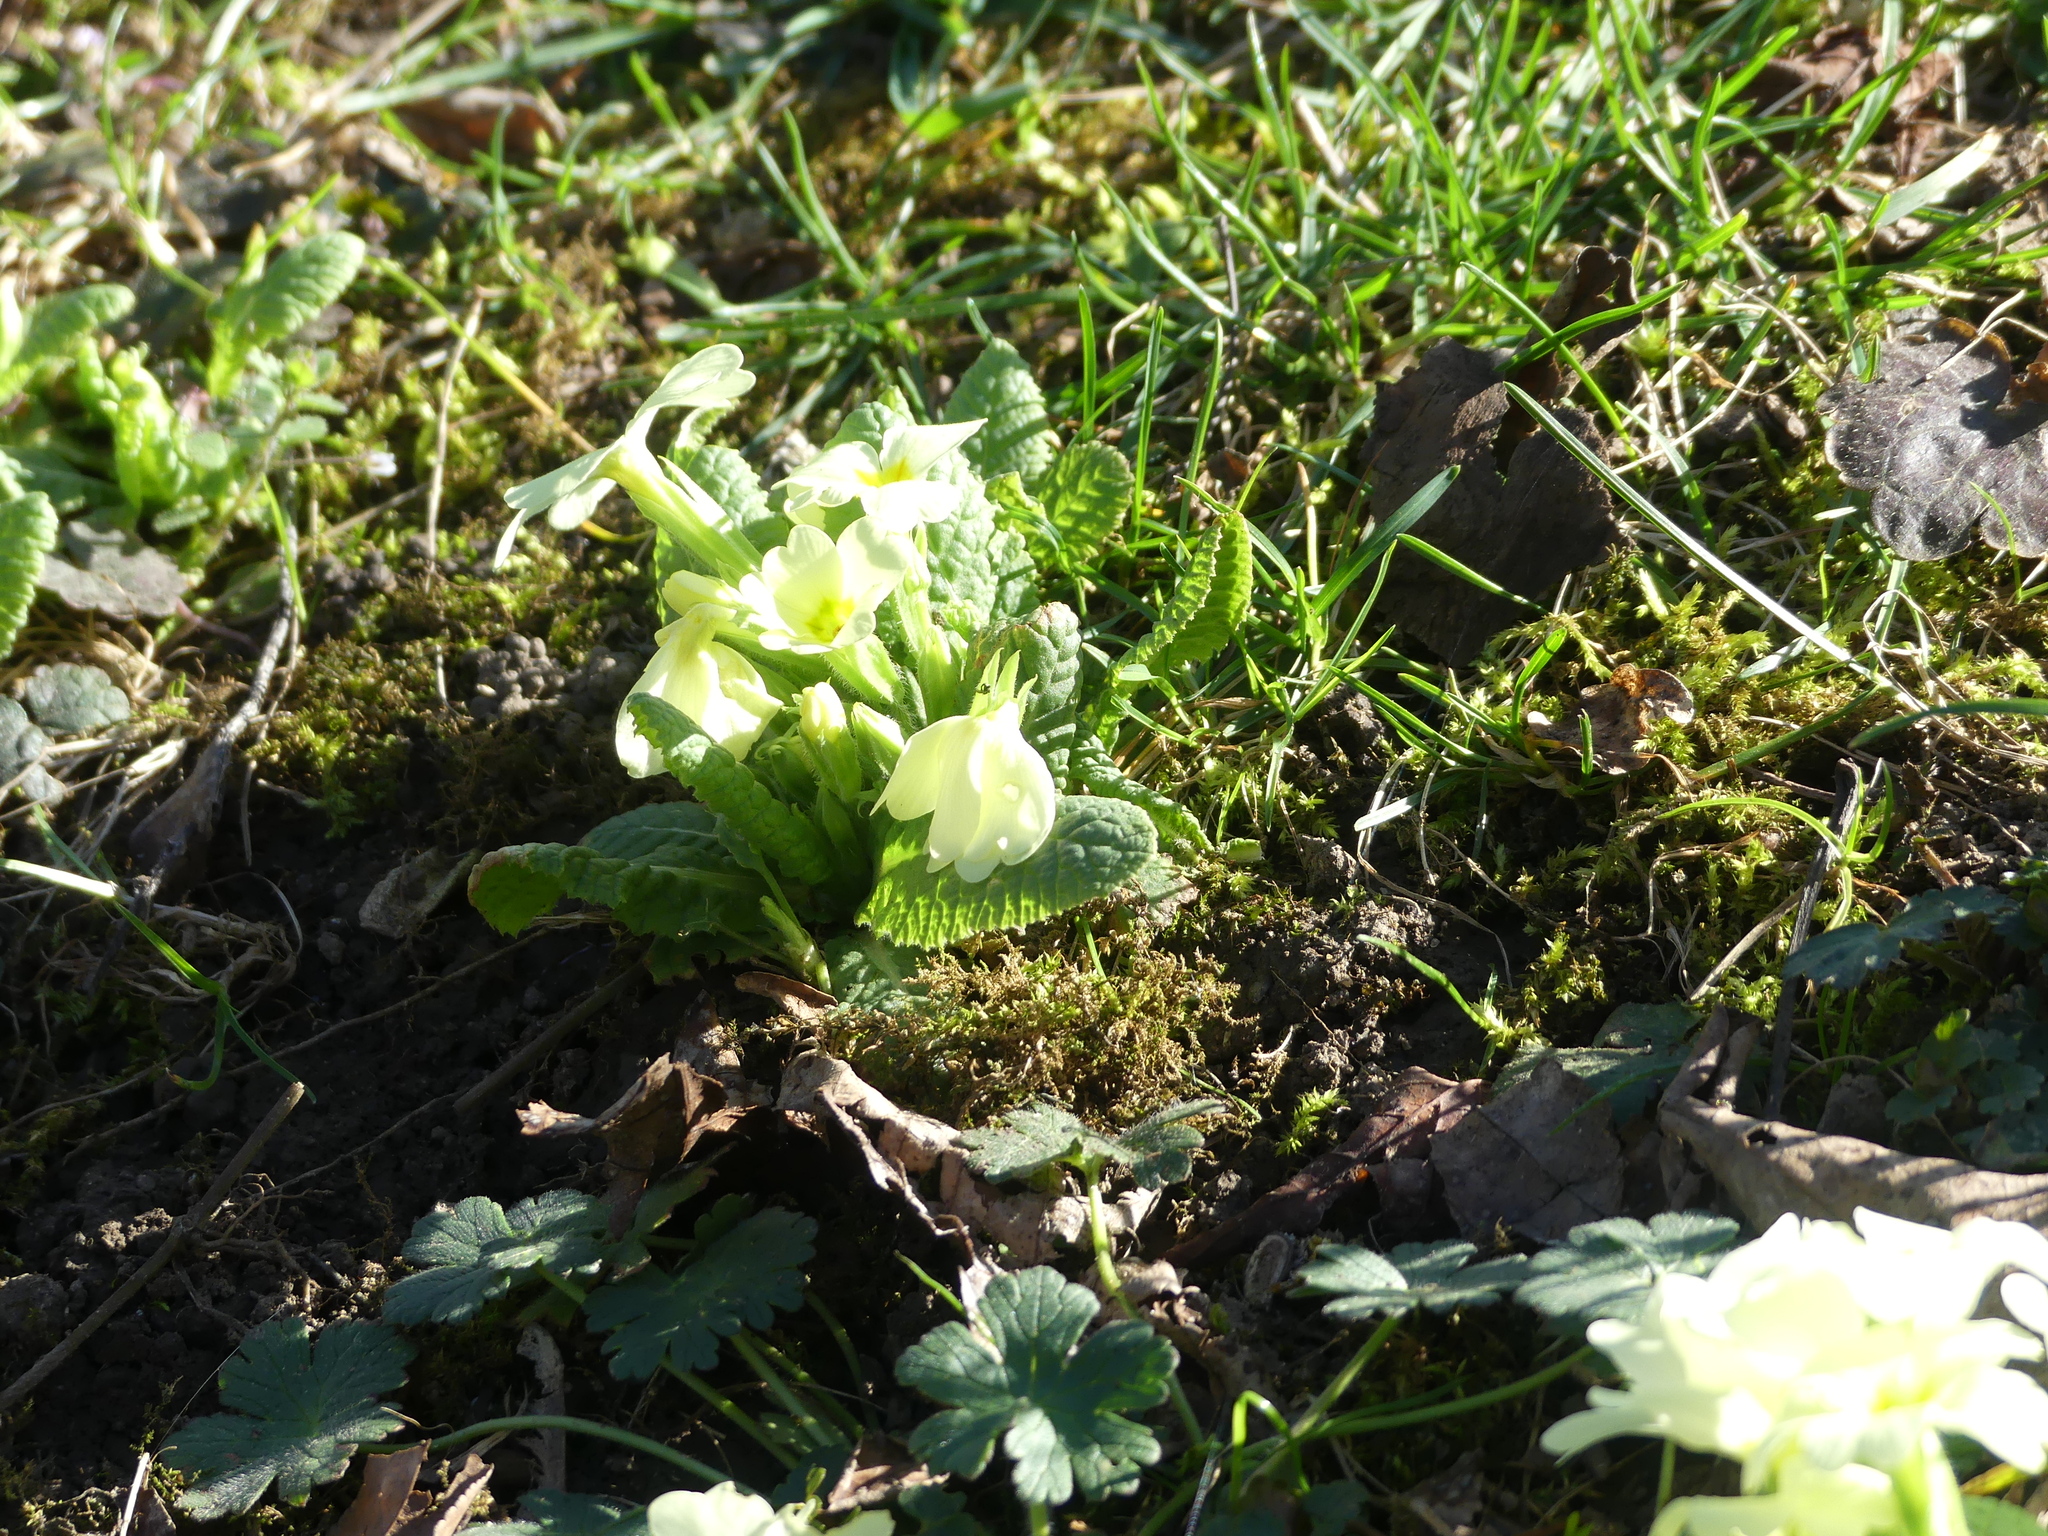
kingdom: Plantae
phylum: Tracheophyta
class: Magnoliopsida
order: Ericales
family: Primulaceae
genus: Primula
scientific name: Primula vulgaris
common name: Primrose
